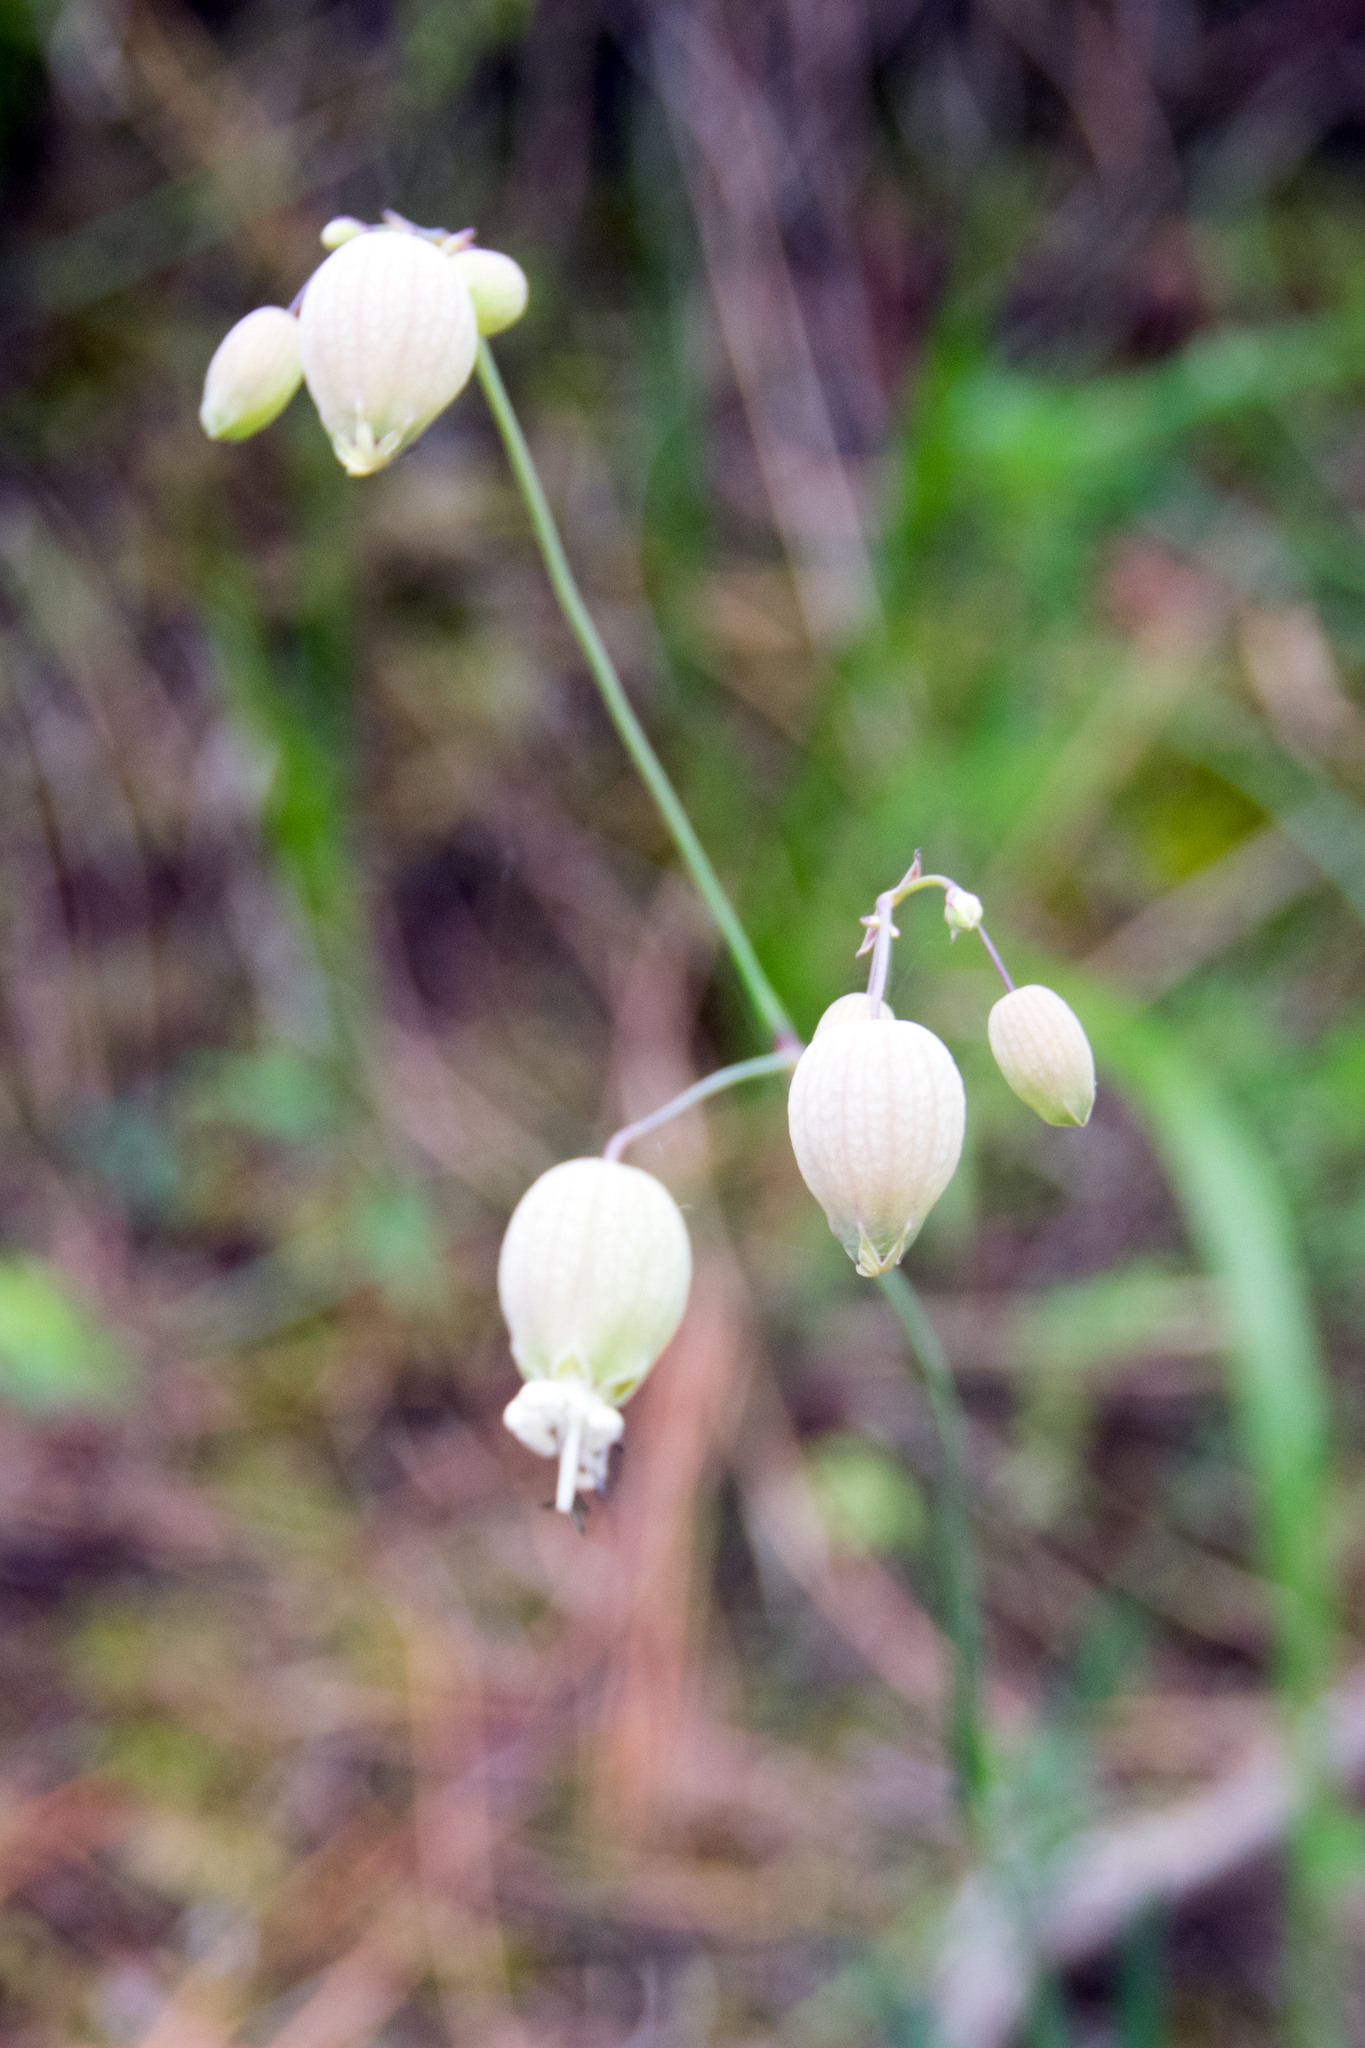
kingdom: Plantae
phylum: Tracheophyta
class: Magnoliopsida
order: Caryophyllales
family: Caryophyllaceae
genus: Silene
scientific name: Silene vulgaris
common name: Bladder campion
